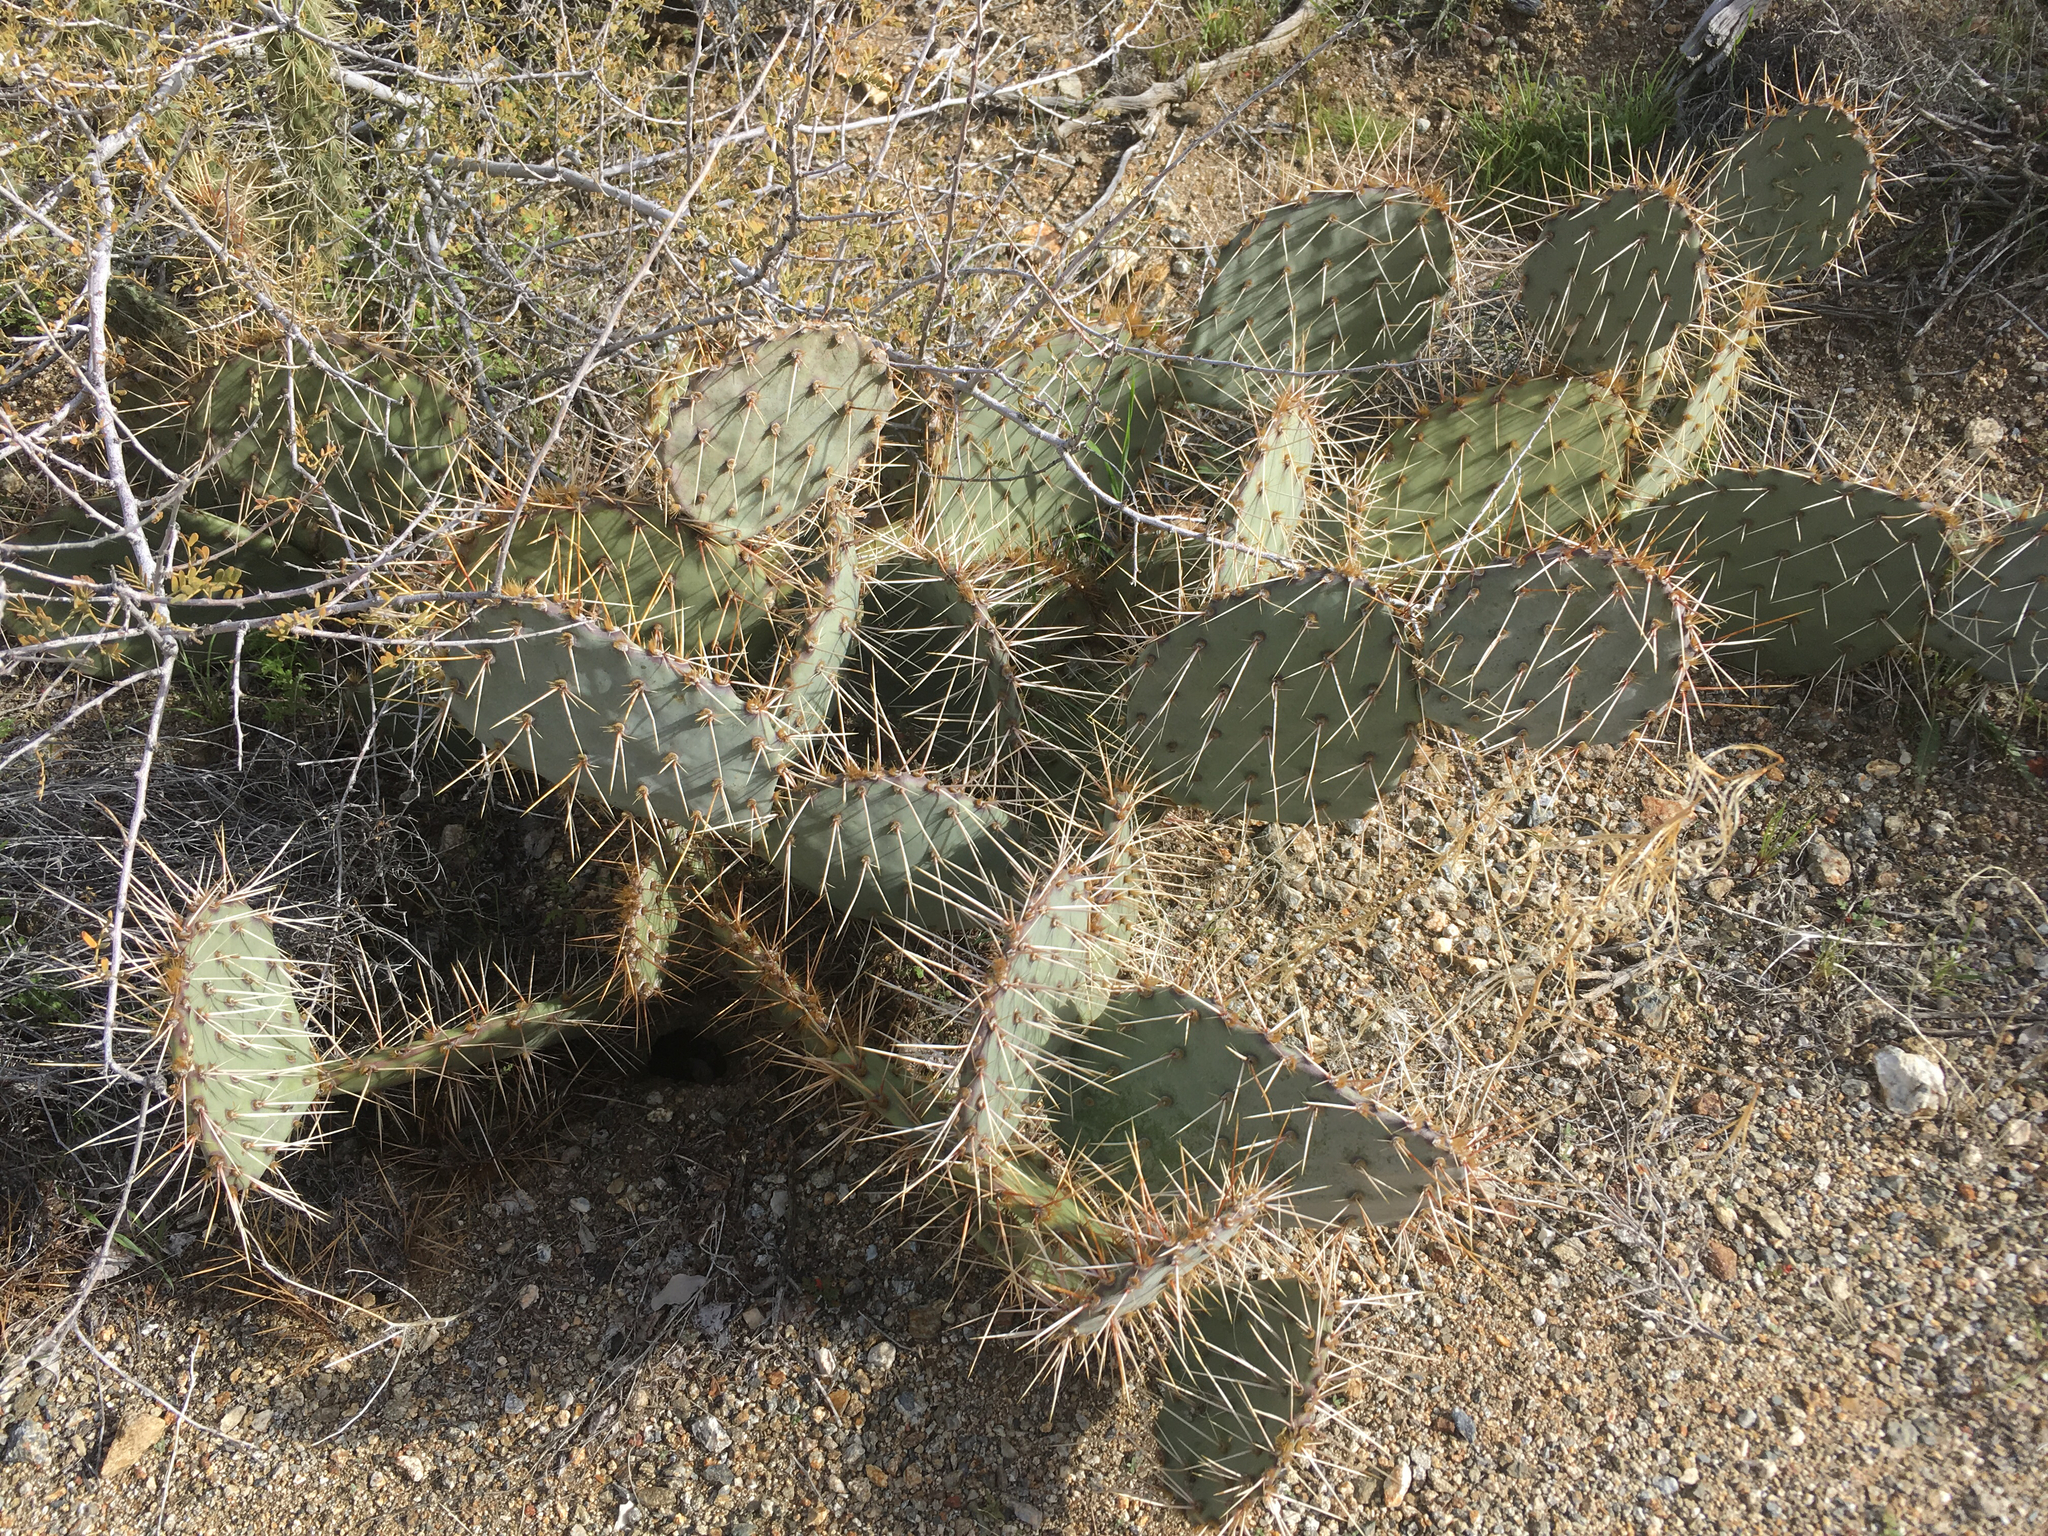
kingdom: Plantae
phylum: Tracheophyta
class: Magnoliopsida
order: Caryophyllales
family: Cactaceae
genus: Opuntia
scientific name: Opuntia phaeacantha
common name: New mexico prickly-pear
